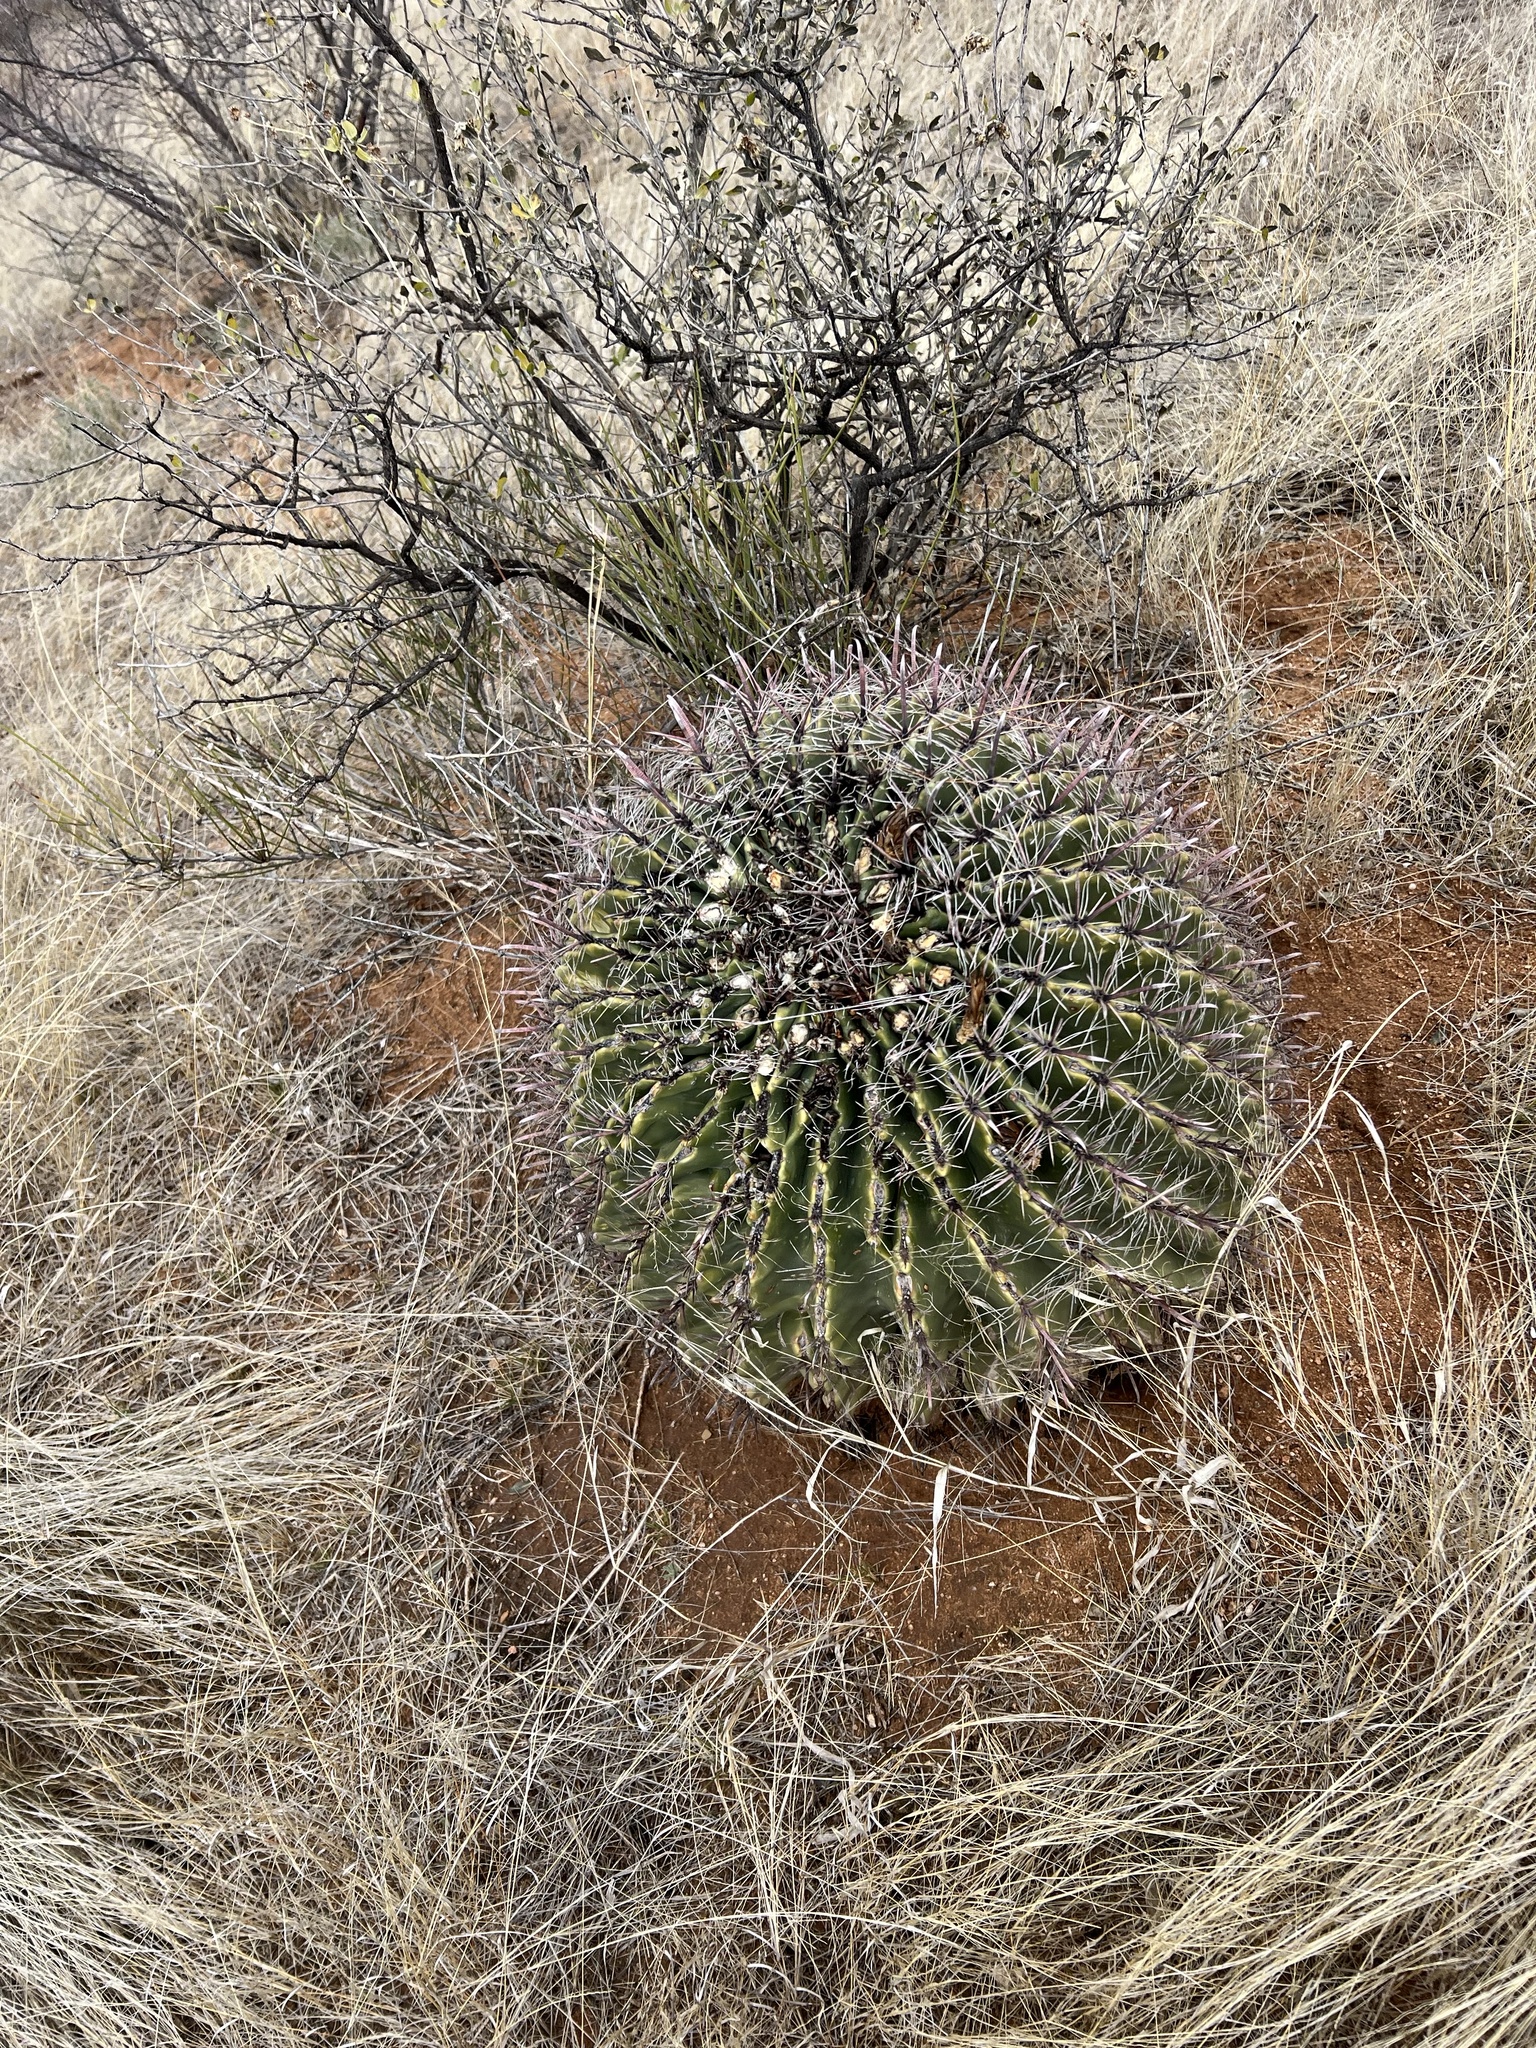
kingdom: Plantae
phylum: Tracheophyta
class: Magnoliopsida
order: Caryophyllales
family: Cactaceae
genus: Ferocactus
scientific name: Ferocactus wislizeni
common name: Candy barrel cactus
